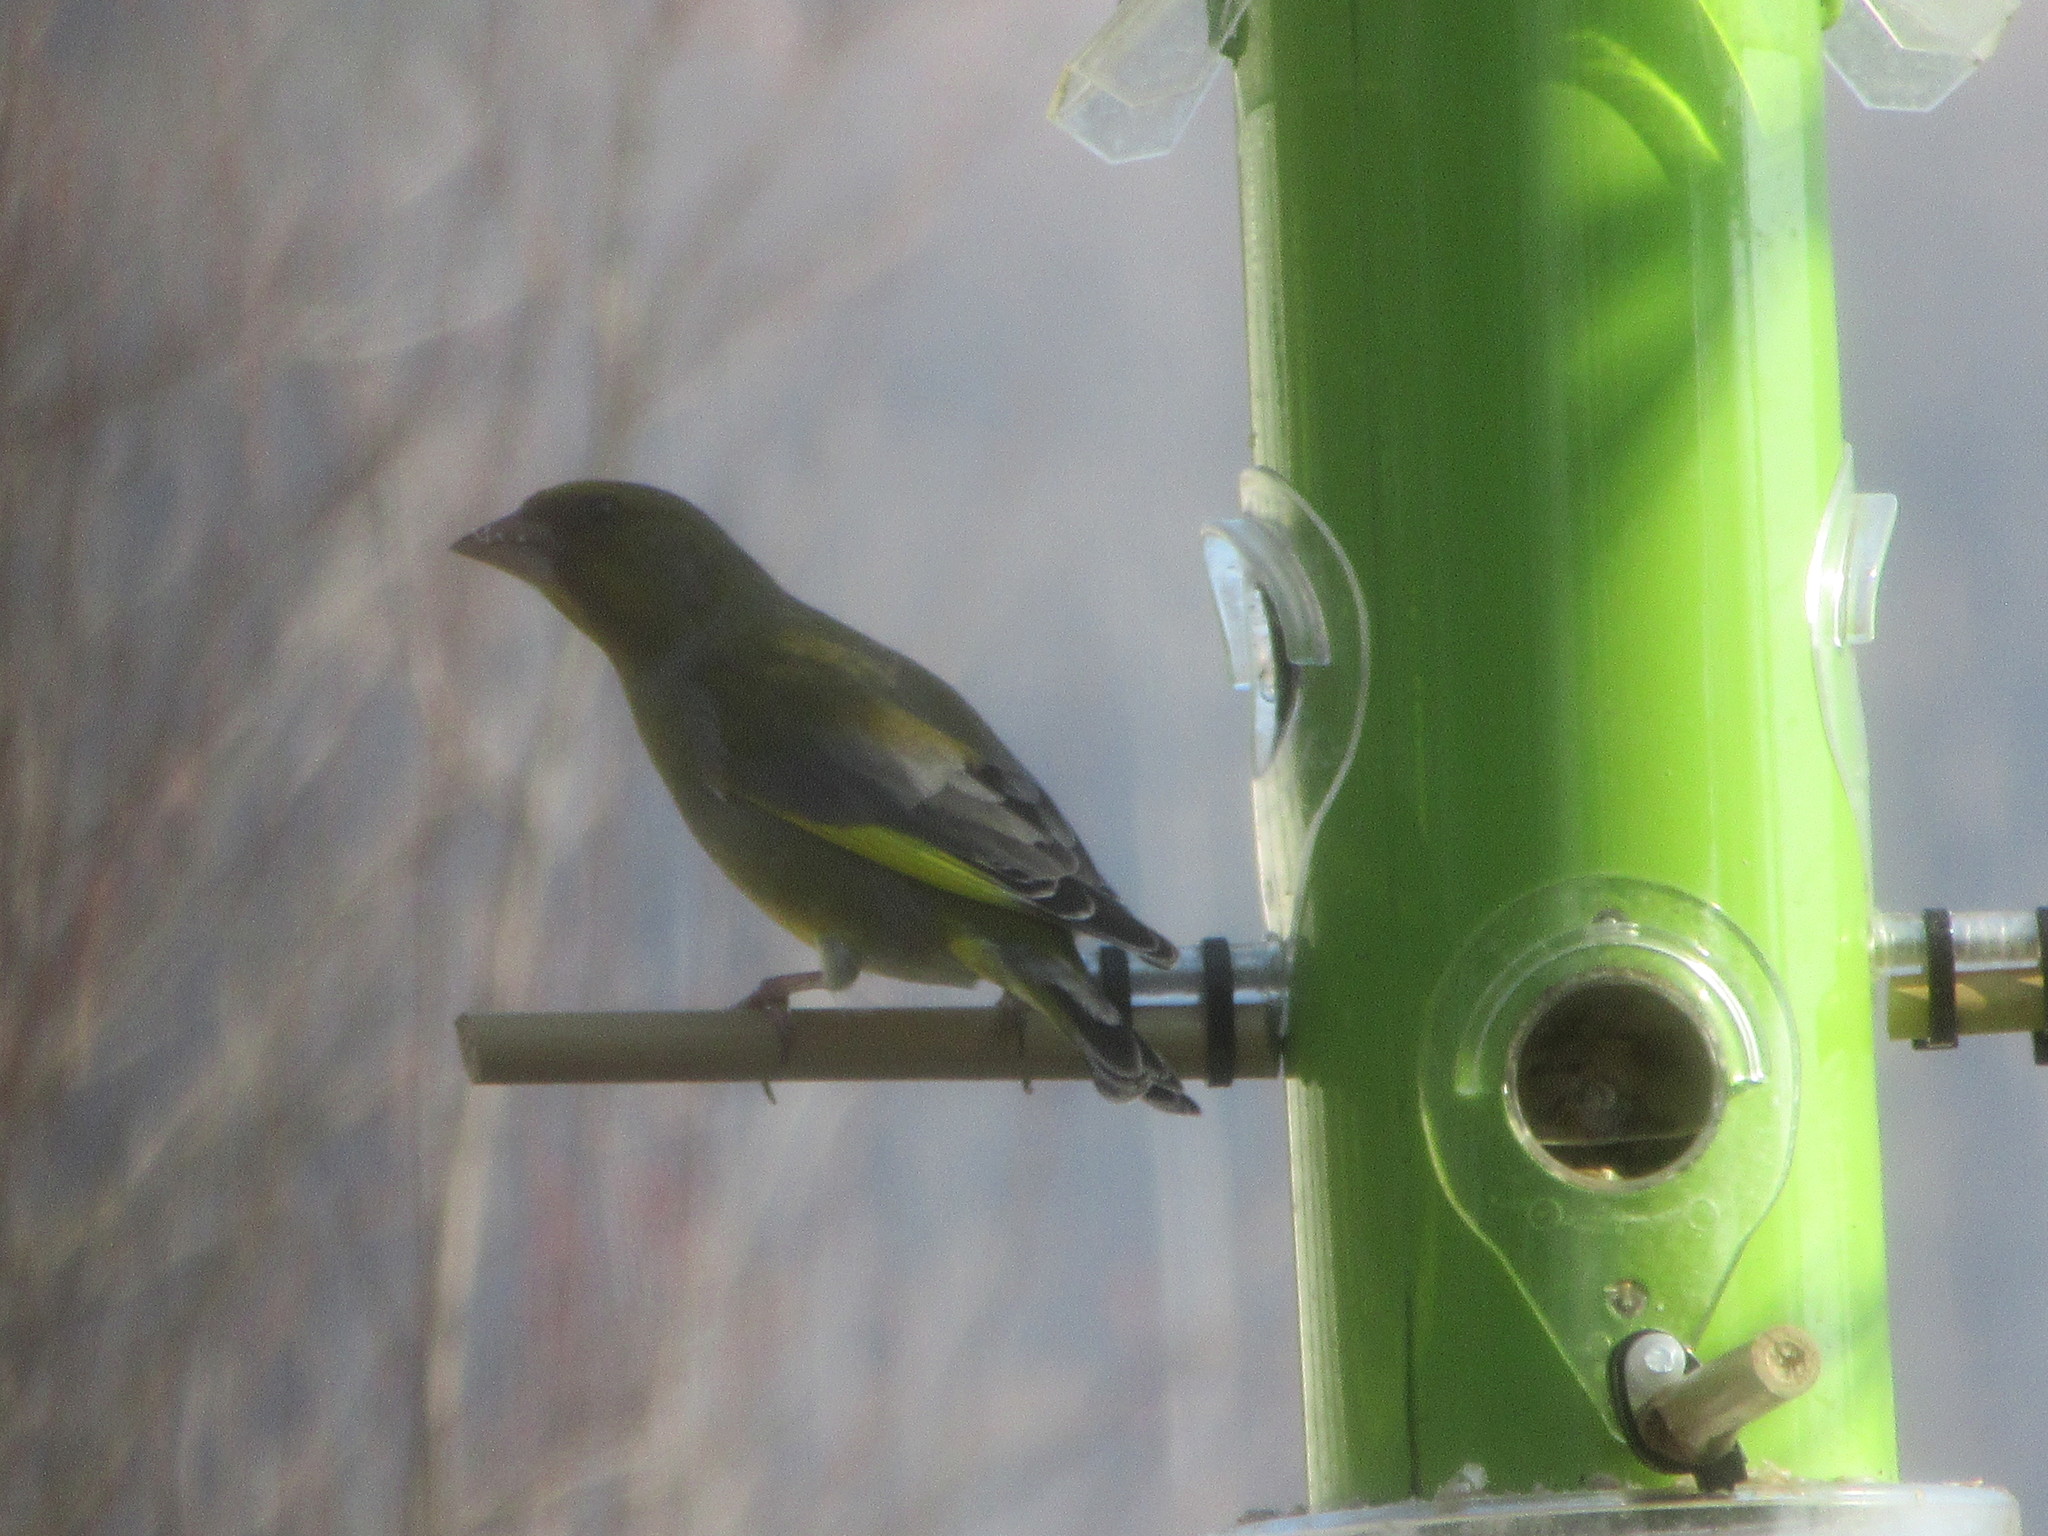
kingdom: Plantae
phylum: Tracheophyta
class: Liliopsida
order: Poales
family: Poaceae
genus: Chloris
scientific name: Chloris chloris
